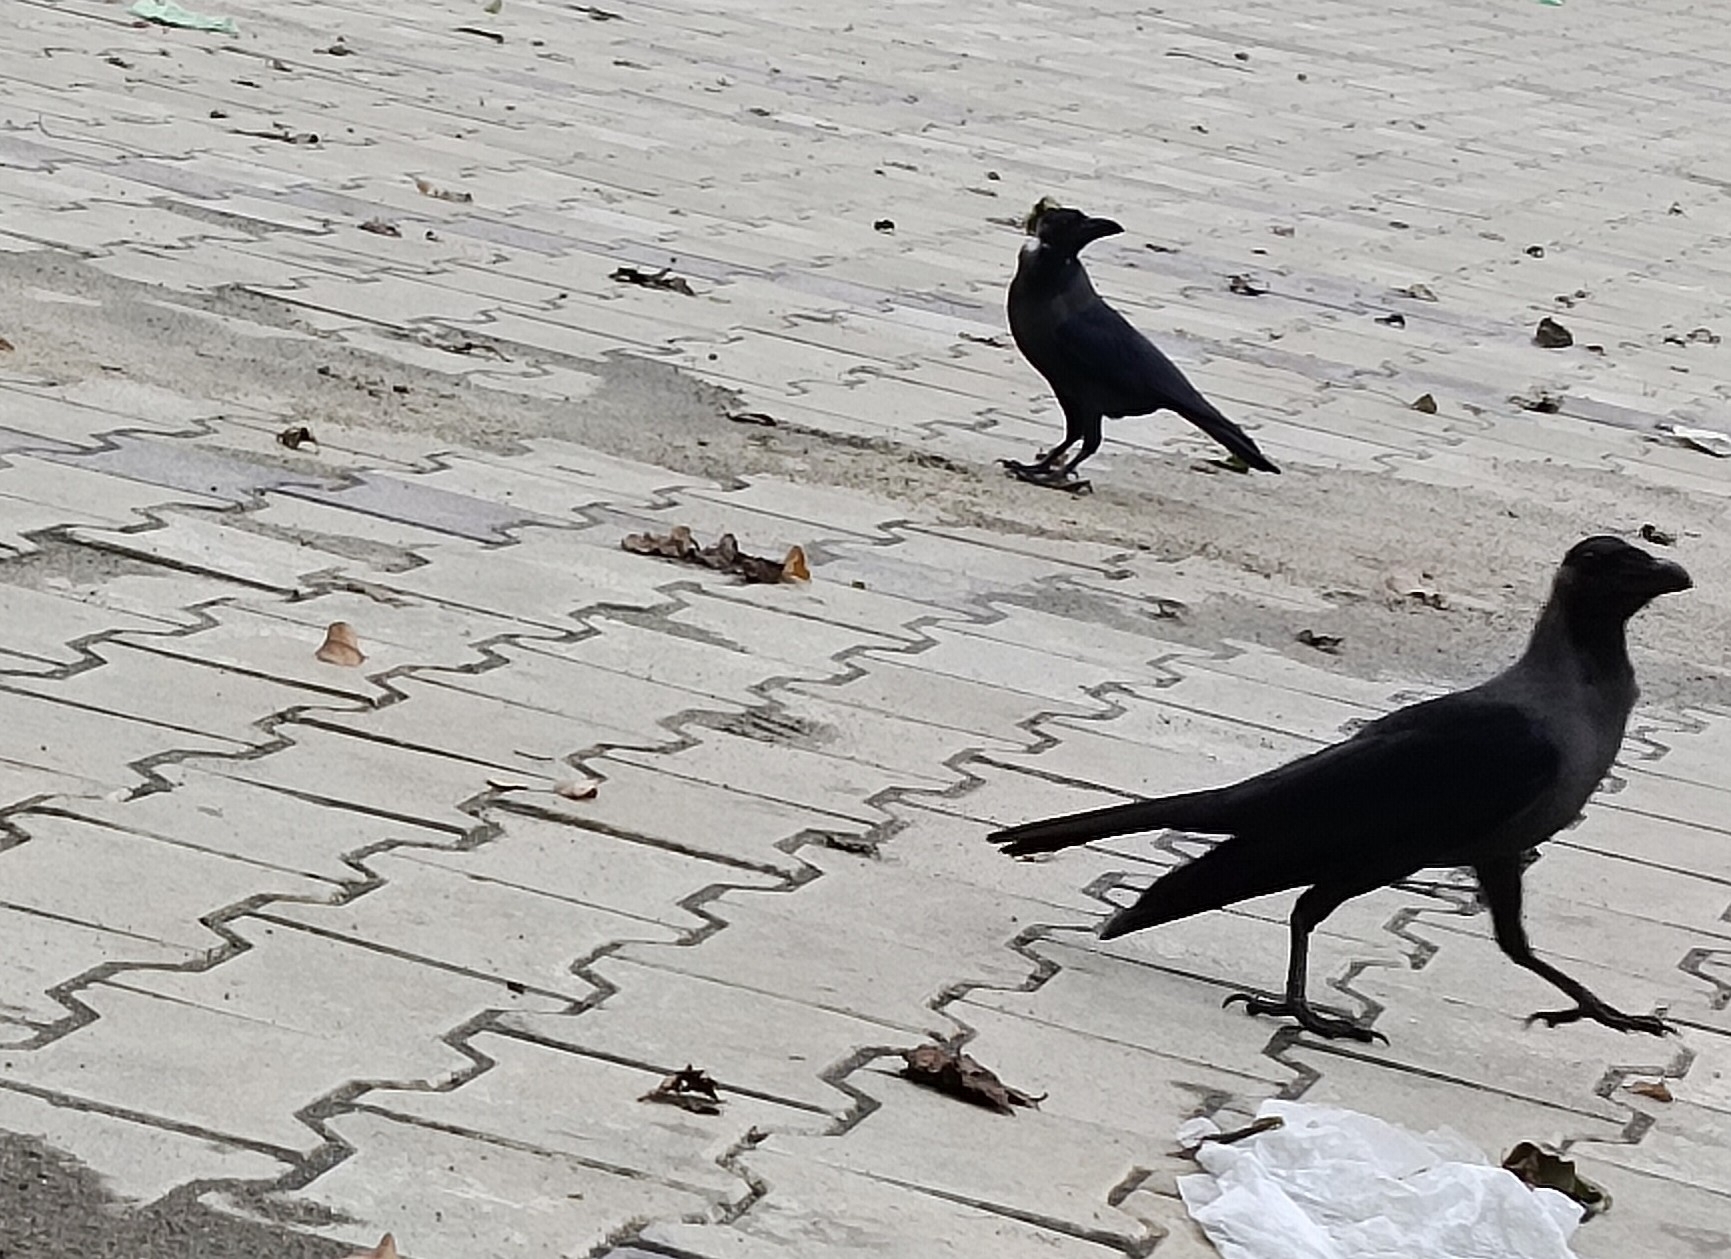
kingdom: Animalia
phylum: Chordata
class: Aves
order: Passeriformes
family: Corvidae
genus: Corvus
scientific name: Corvus splendens
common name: House crow
